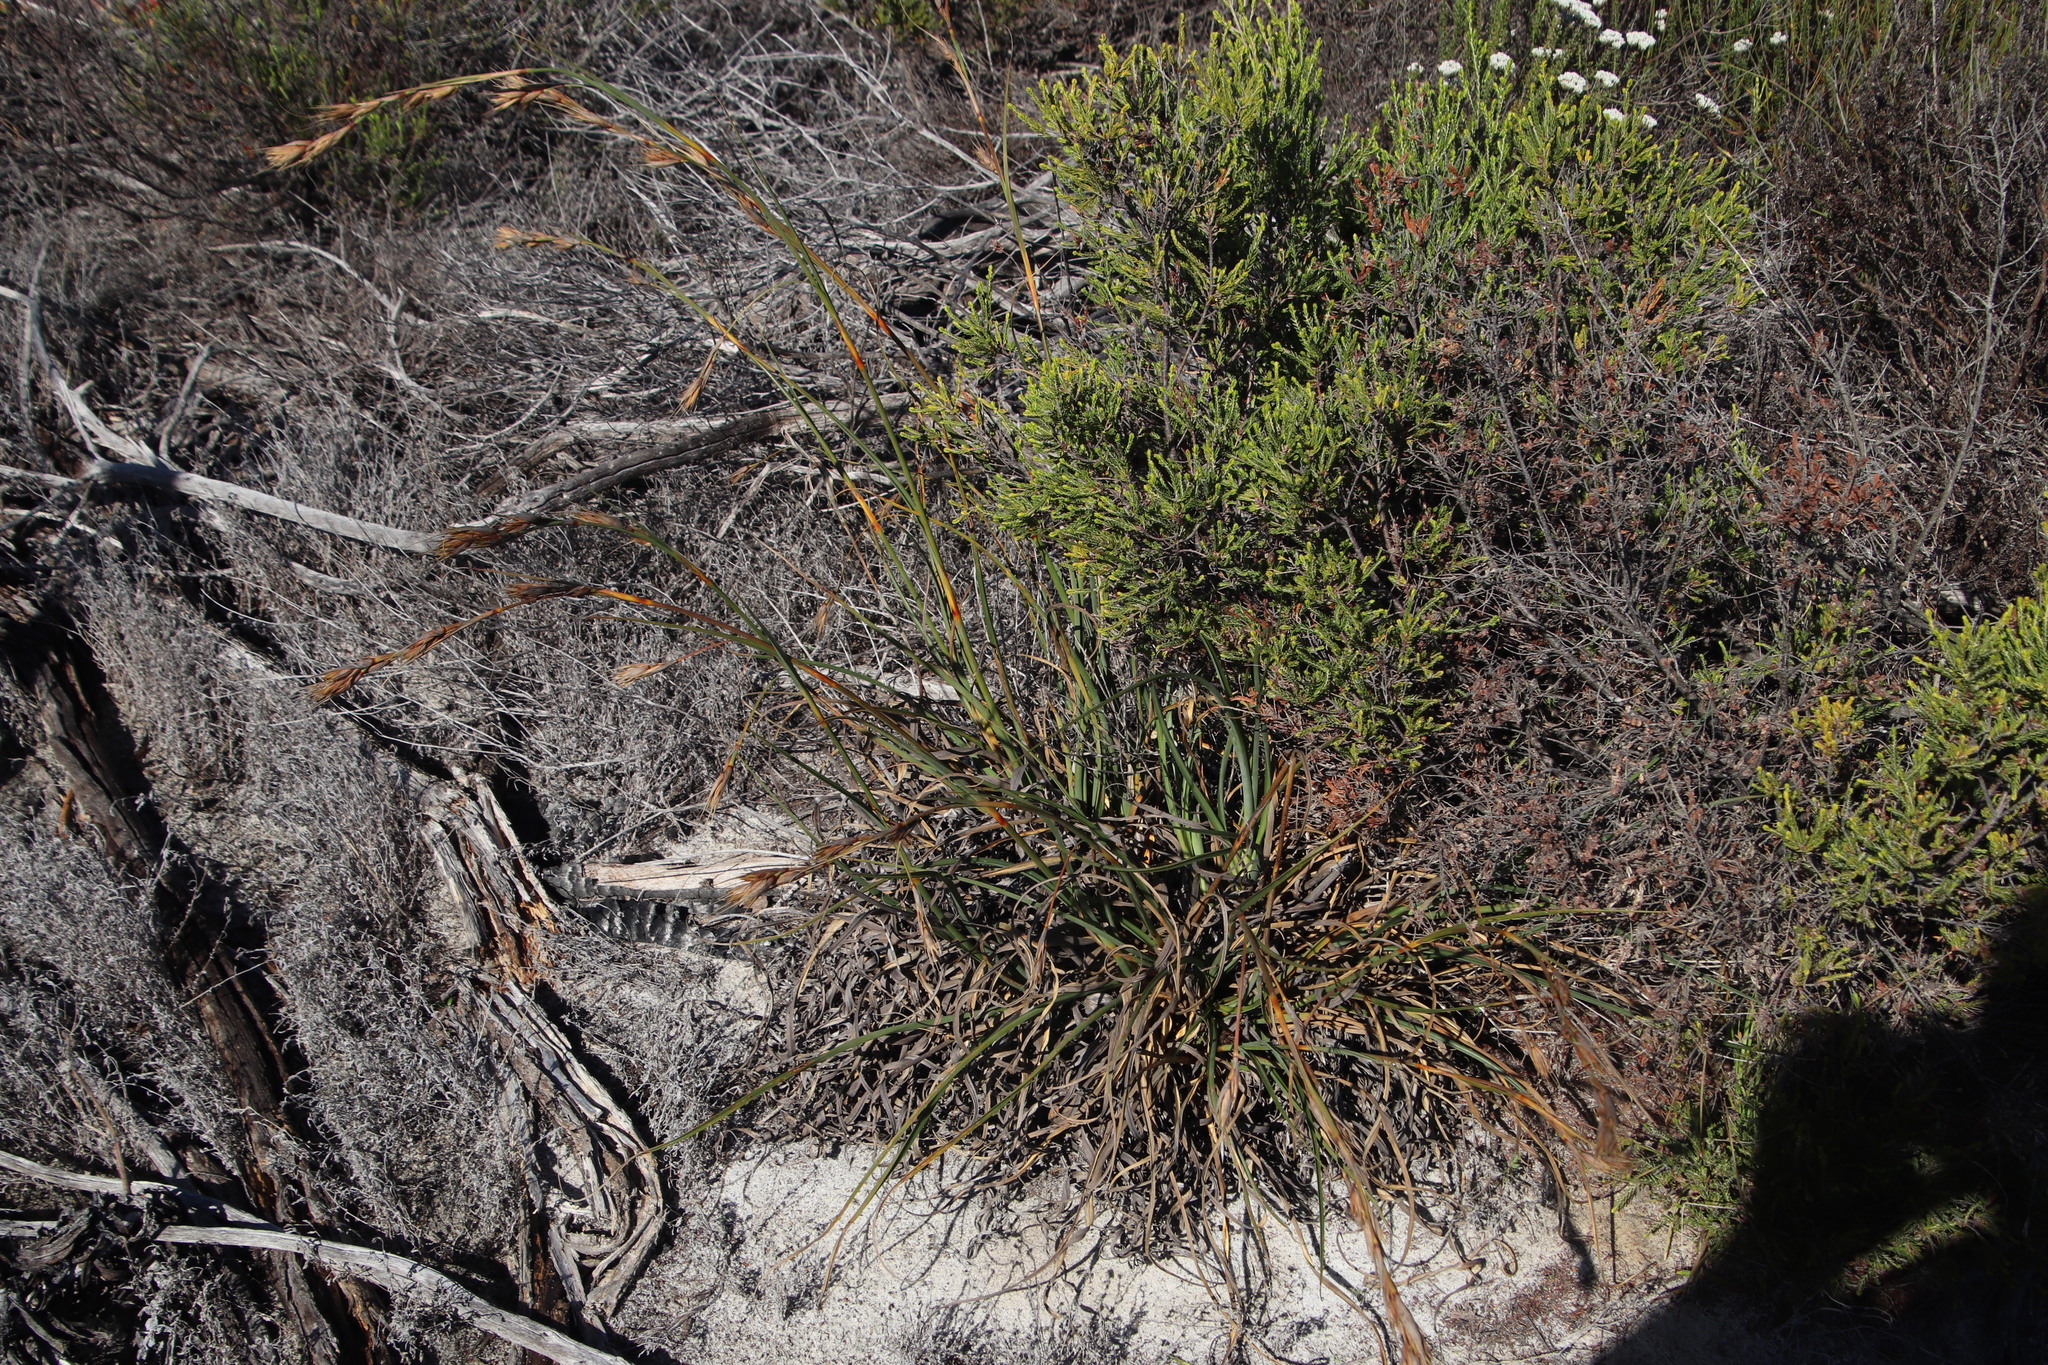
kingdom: Plantae
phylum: Tracheophyta
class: Liliopsida
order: Poales
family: Cyperaceae
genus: Tetraria
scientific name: Tetraria eximia
